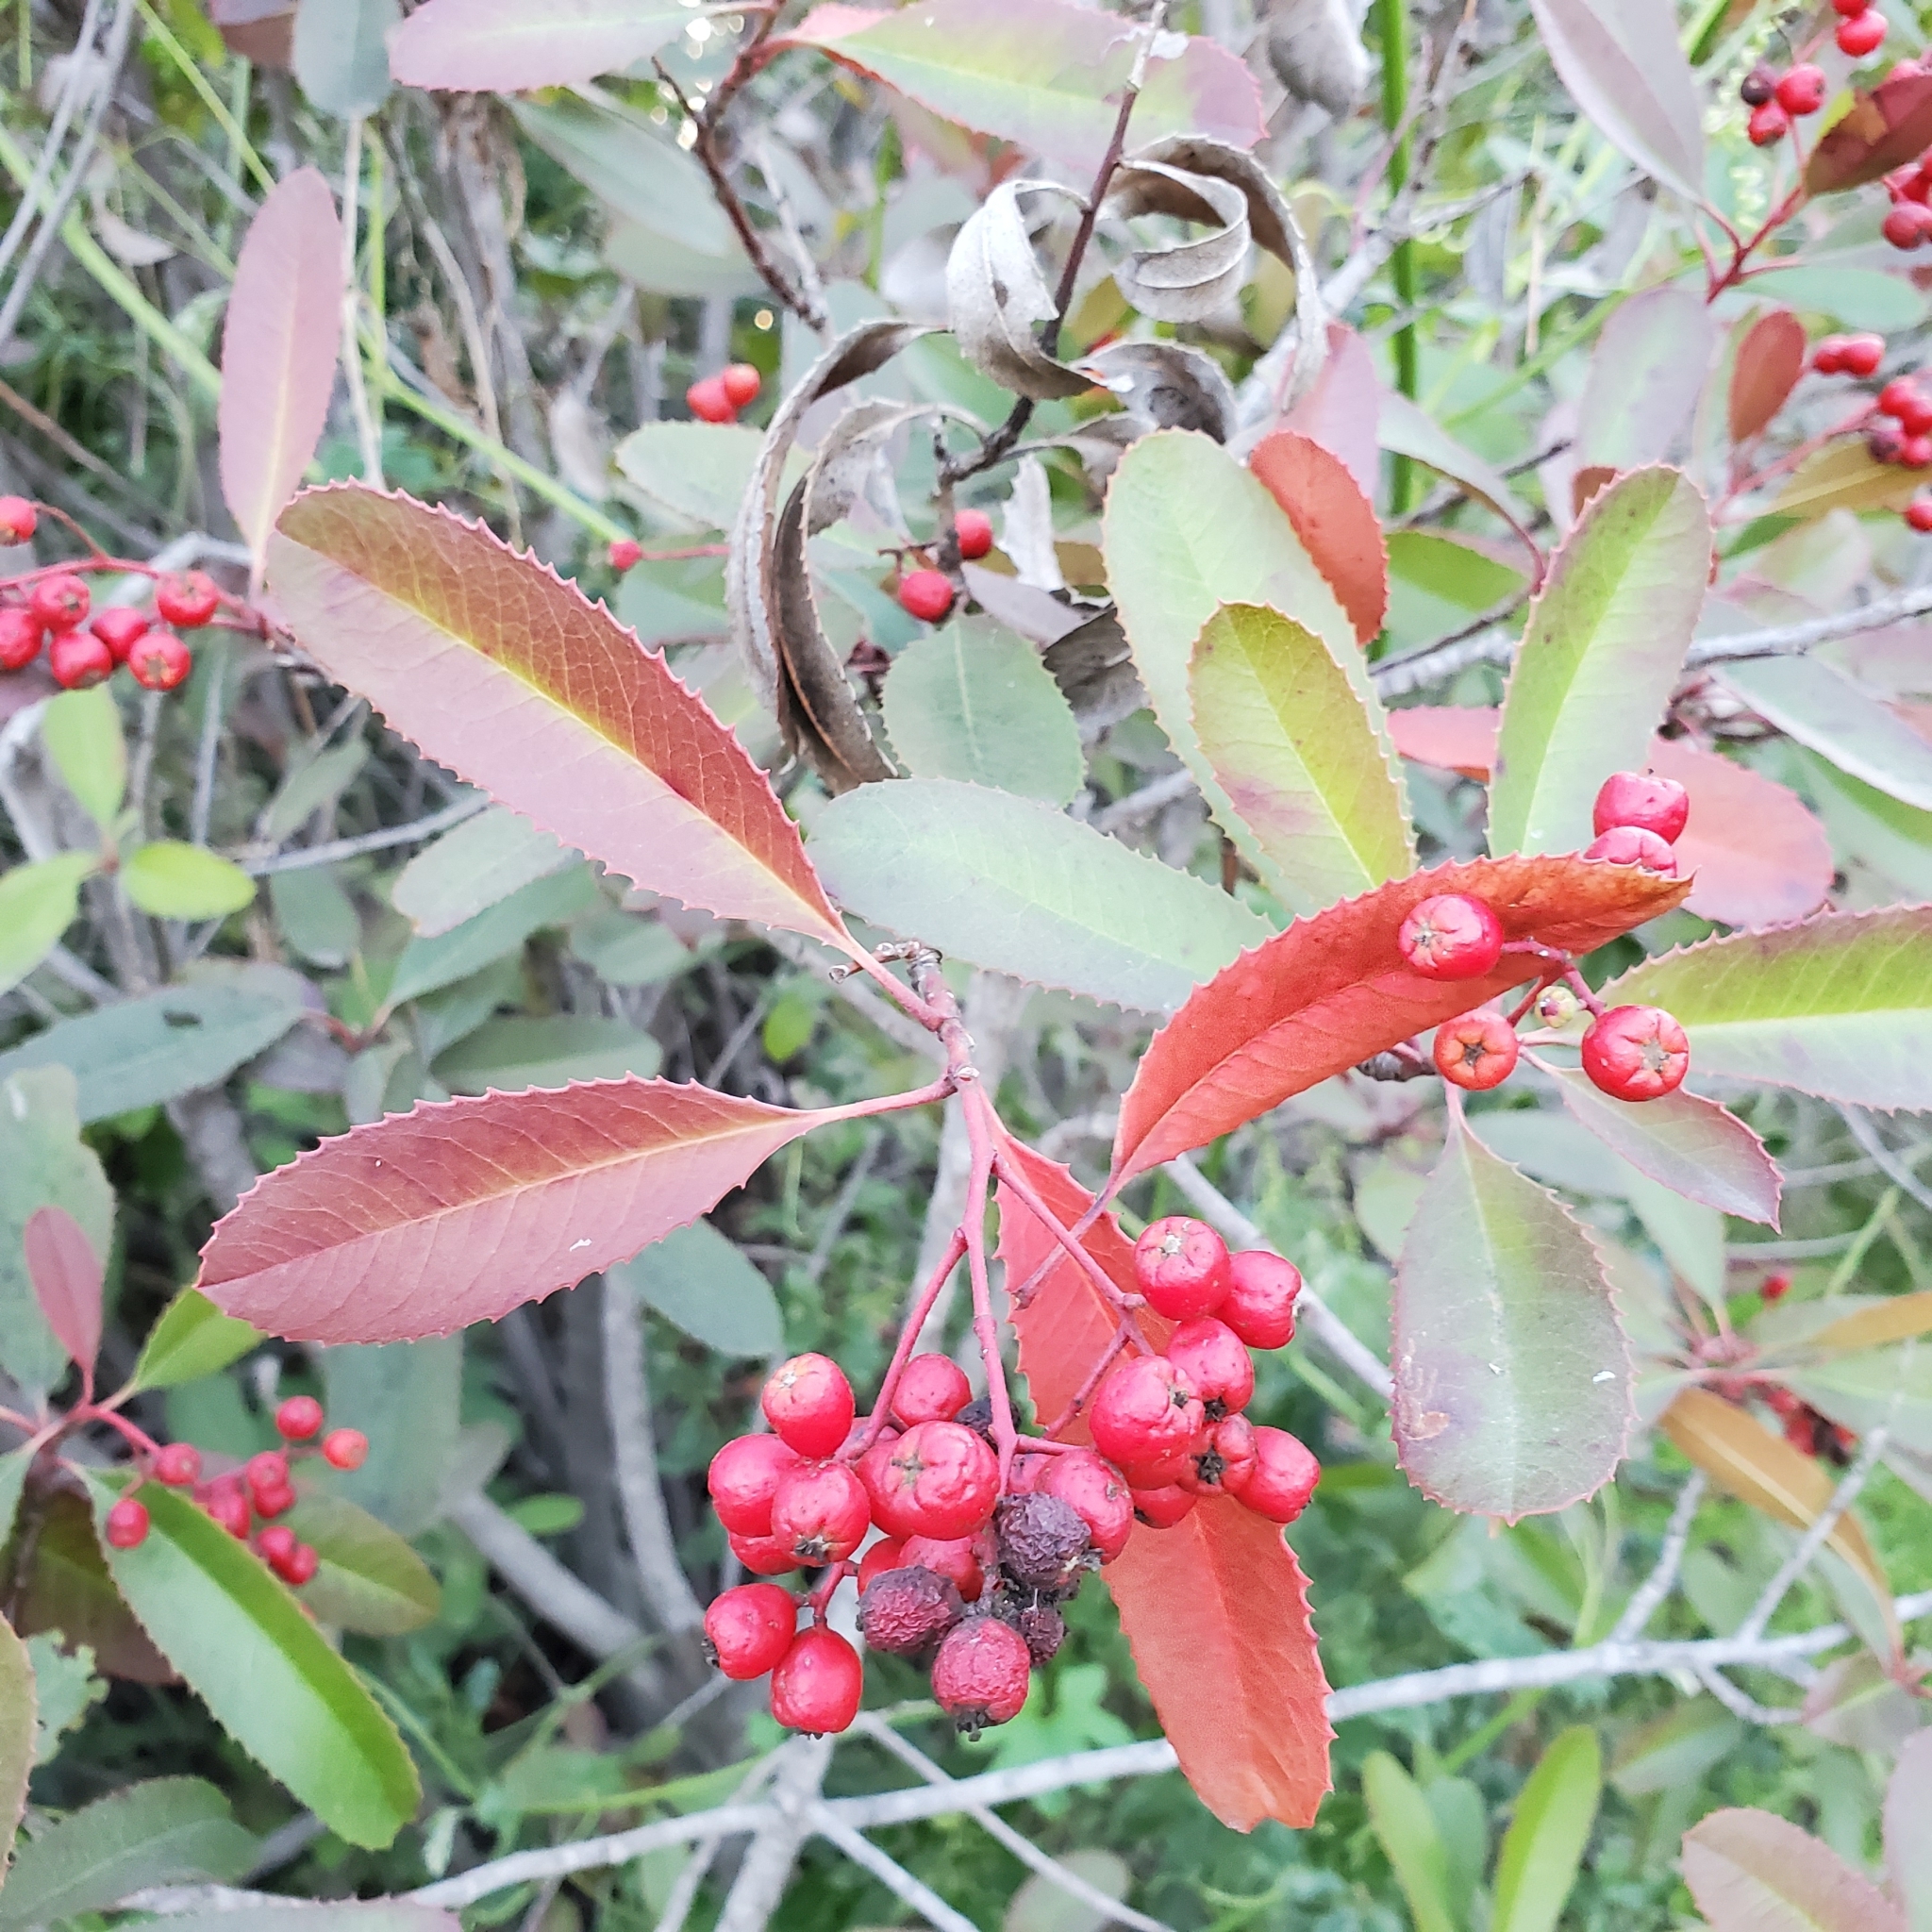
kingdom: Plantae
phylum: Tracheophyta
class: Magnoliopsida
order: Rosales
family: Rosaceae
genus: Heteromeles
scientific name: Heteromeles arbutifolia
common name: California-holly
